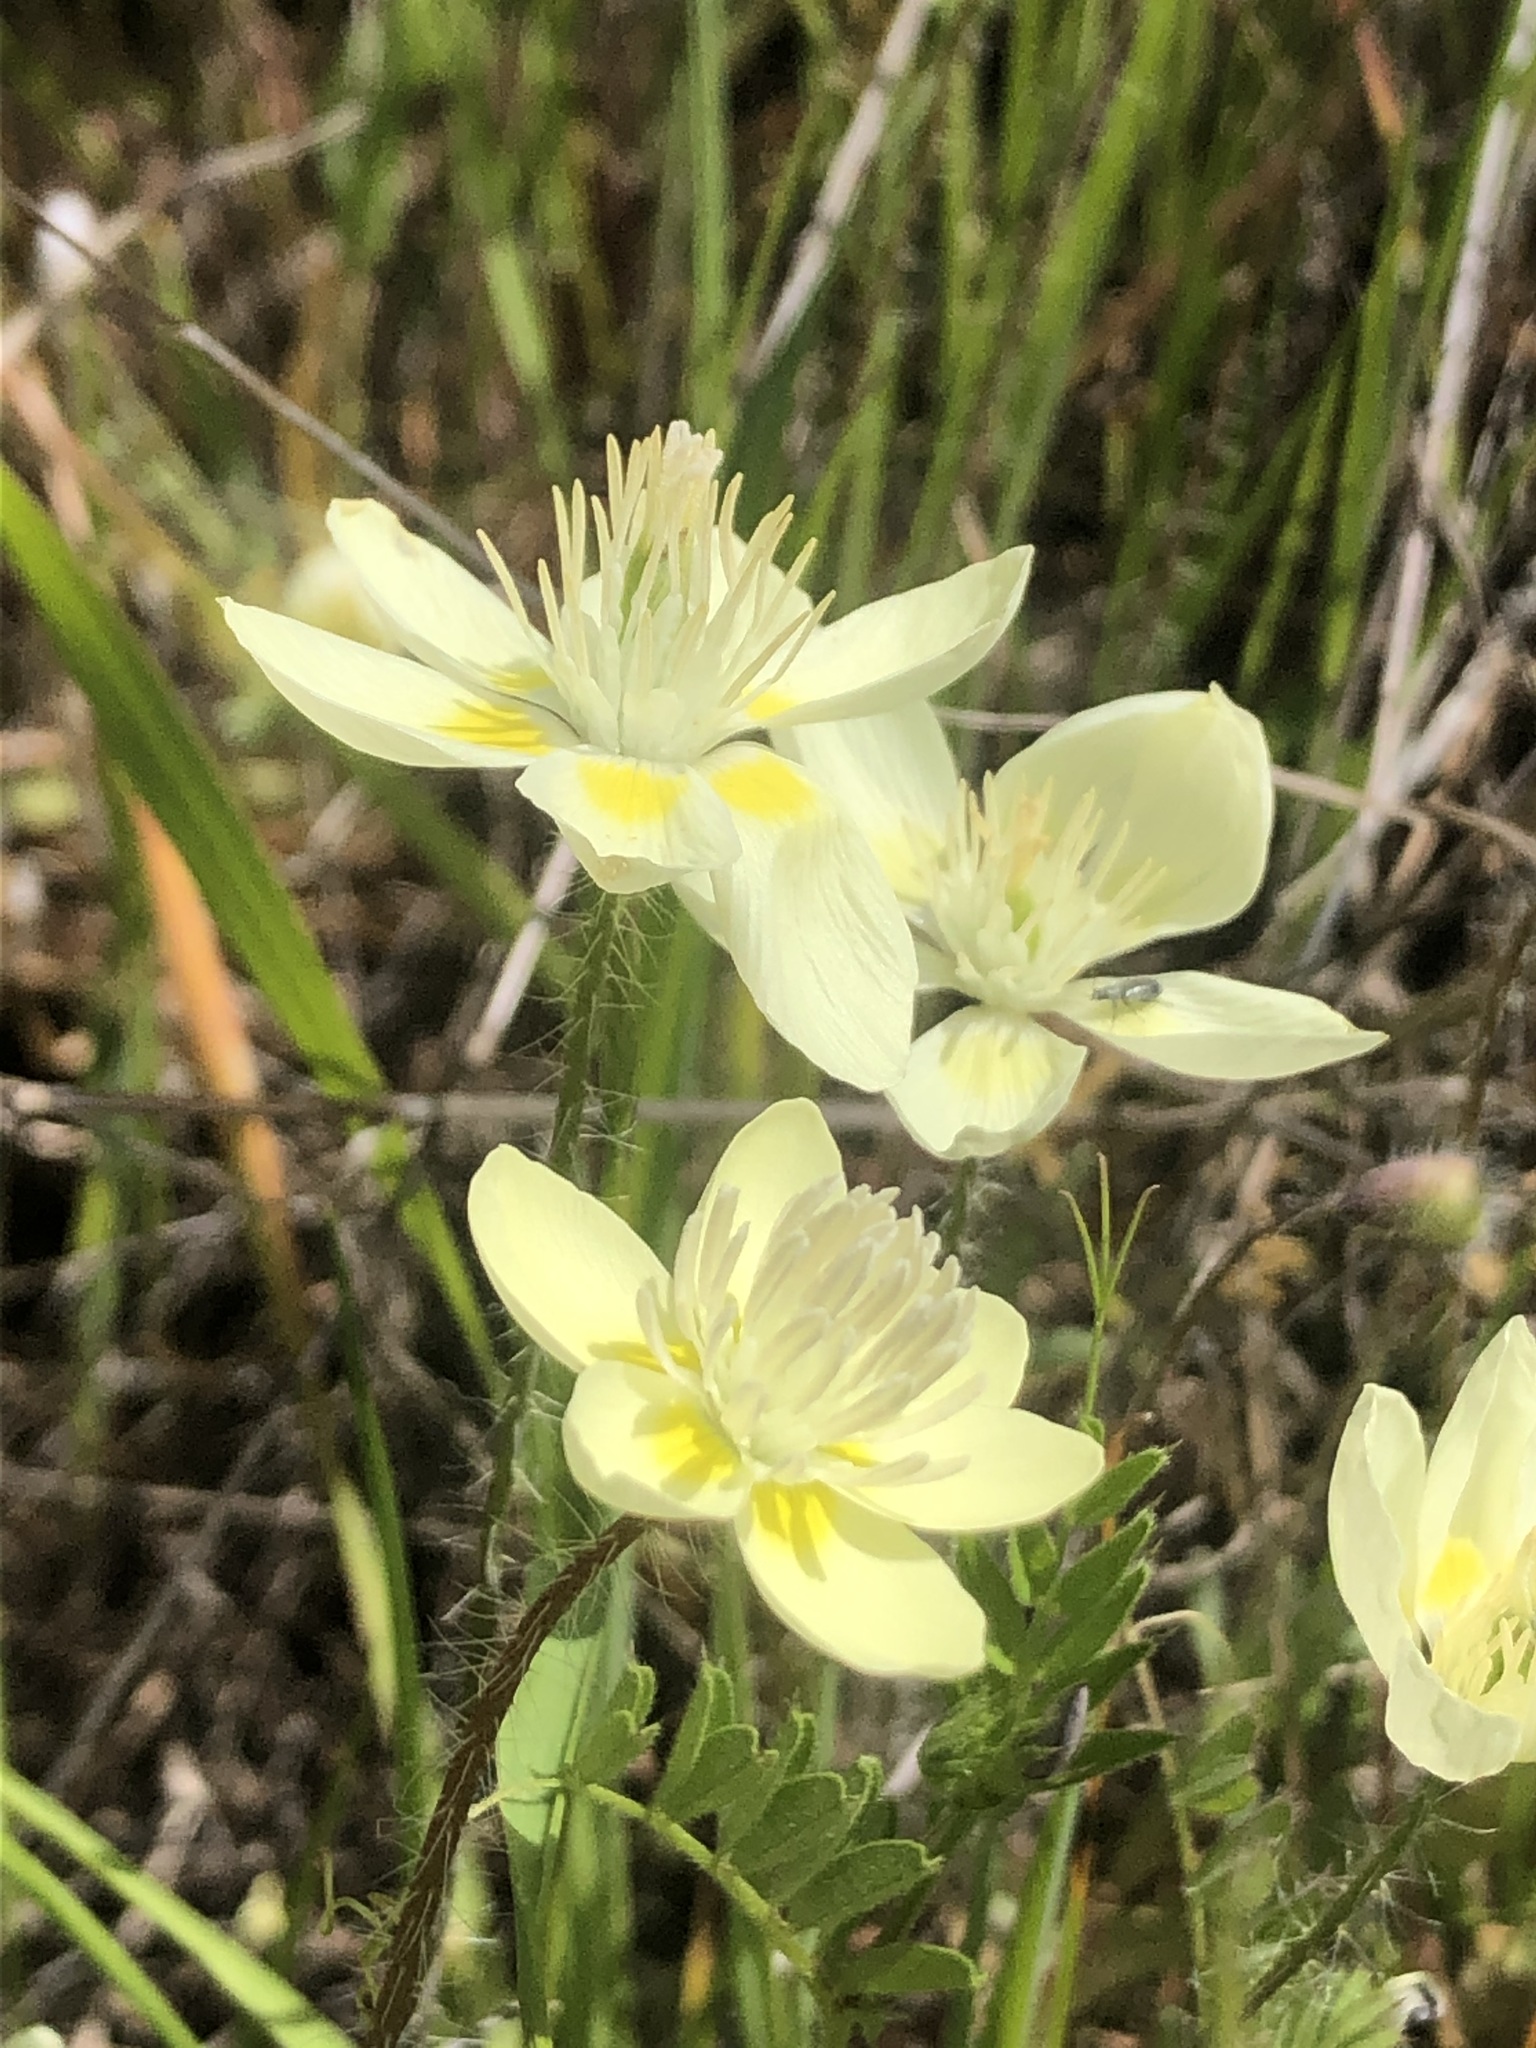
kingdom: Plantae
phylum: Tracheophyta
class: Magnoliopsida
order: Ranunculales
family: Papaveraceae
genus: Platystemon
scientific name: Platystemon californicus
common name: Cream-cups
